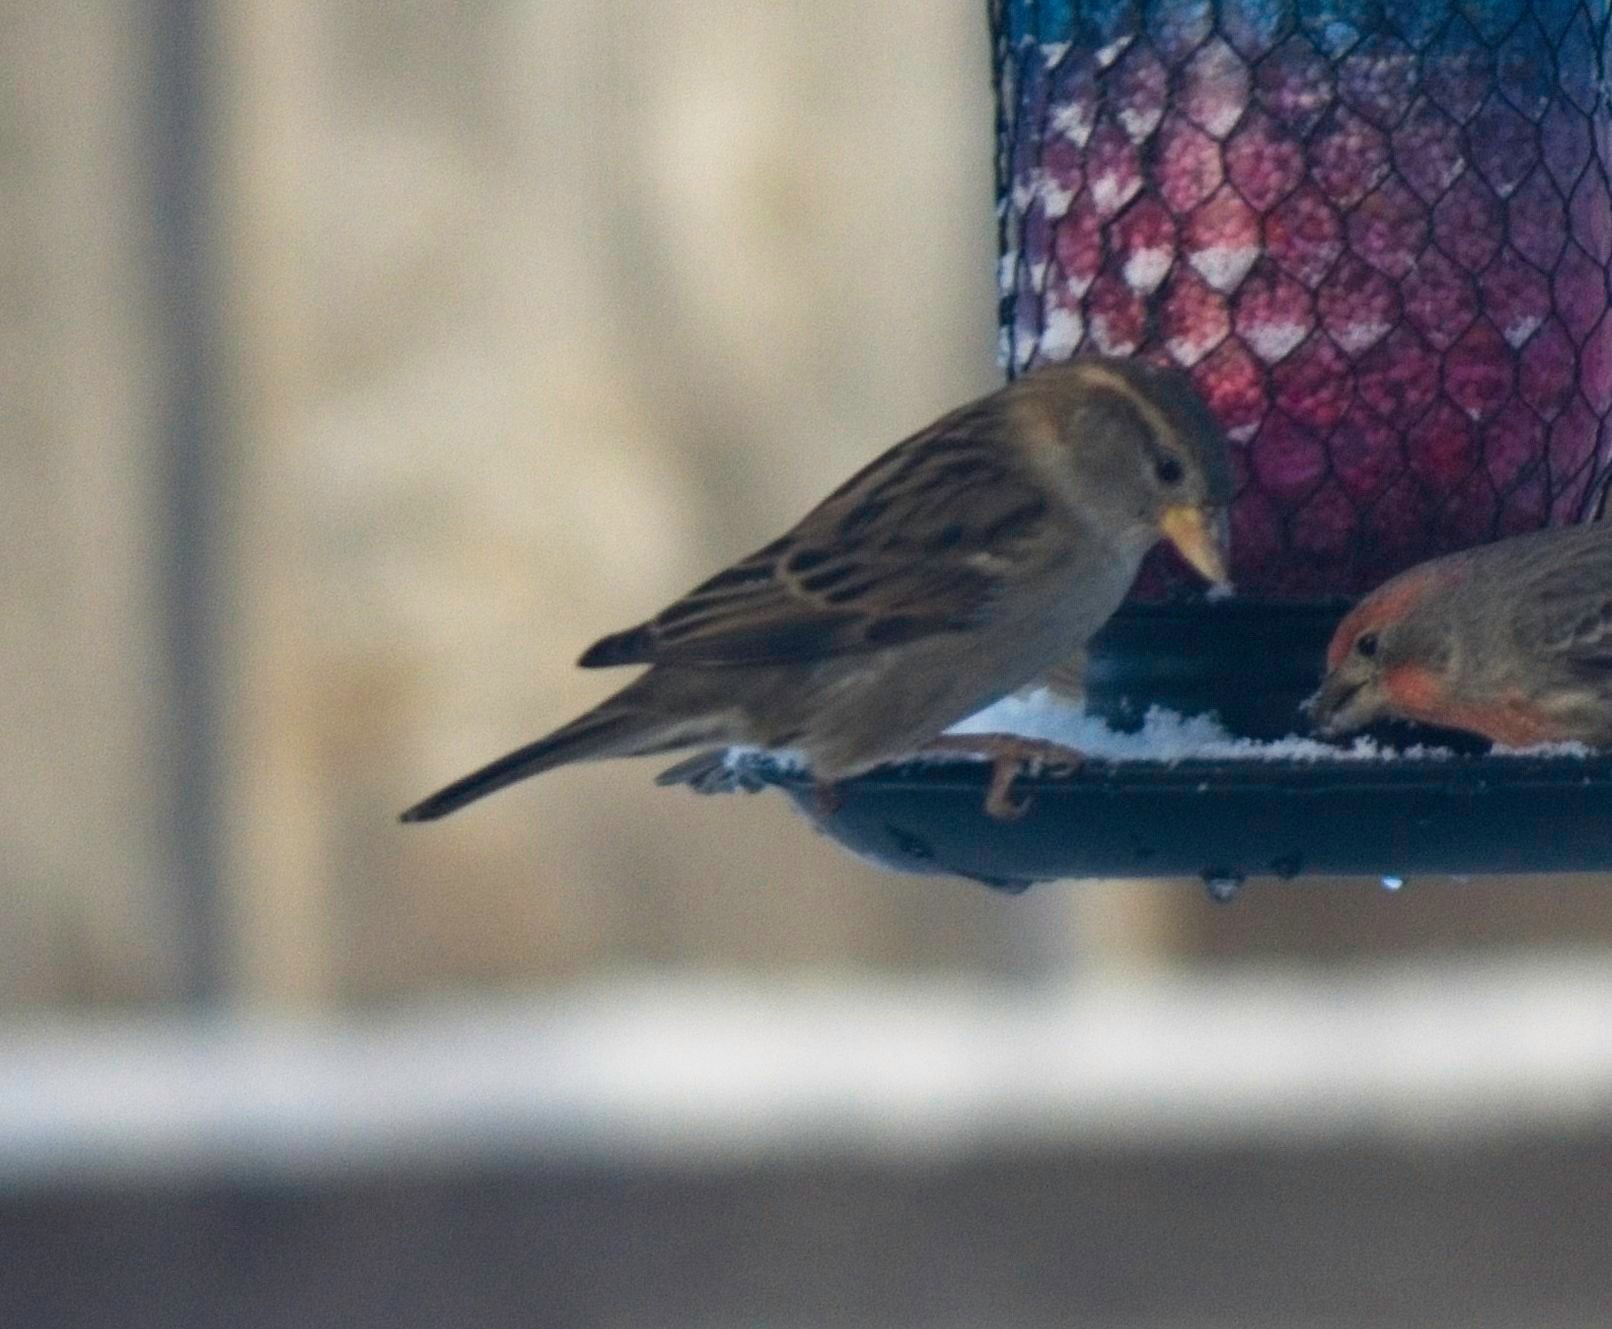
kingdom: Animalia
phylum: Chordata
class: Aves
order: Passeriformes
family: Passeridae
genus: Passer
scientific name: Passer domesticus
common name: House sparrow
